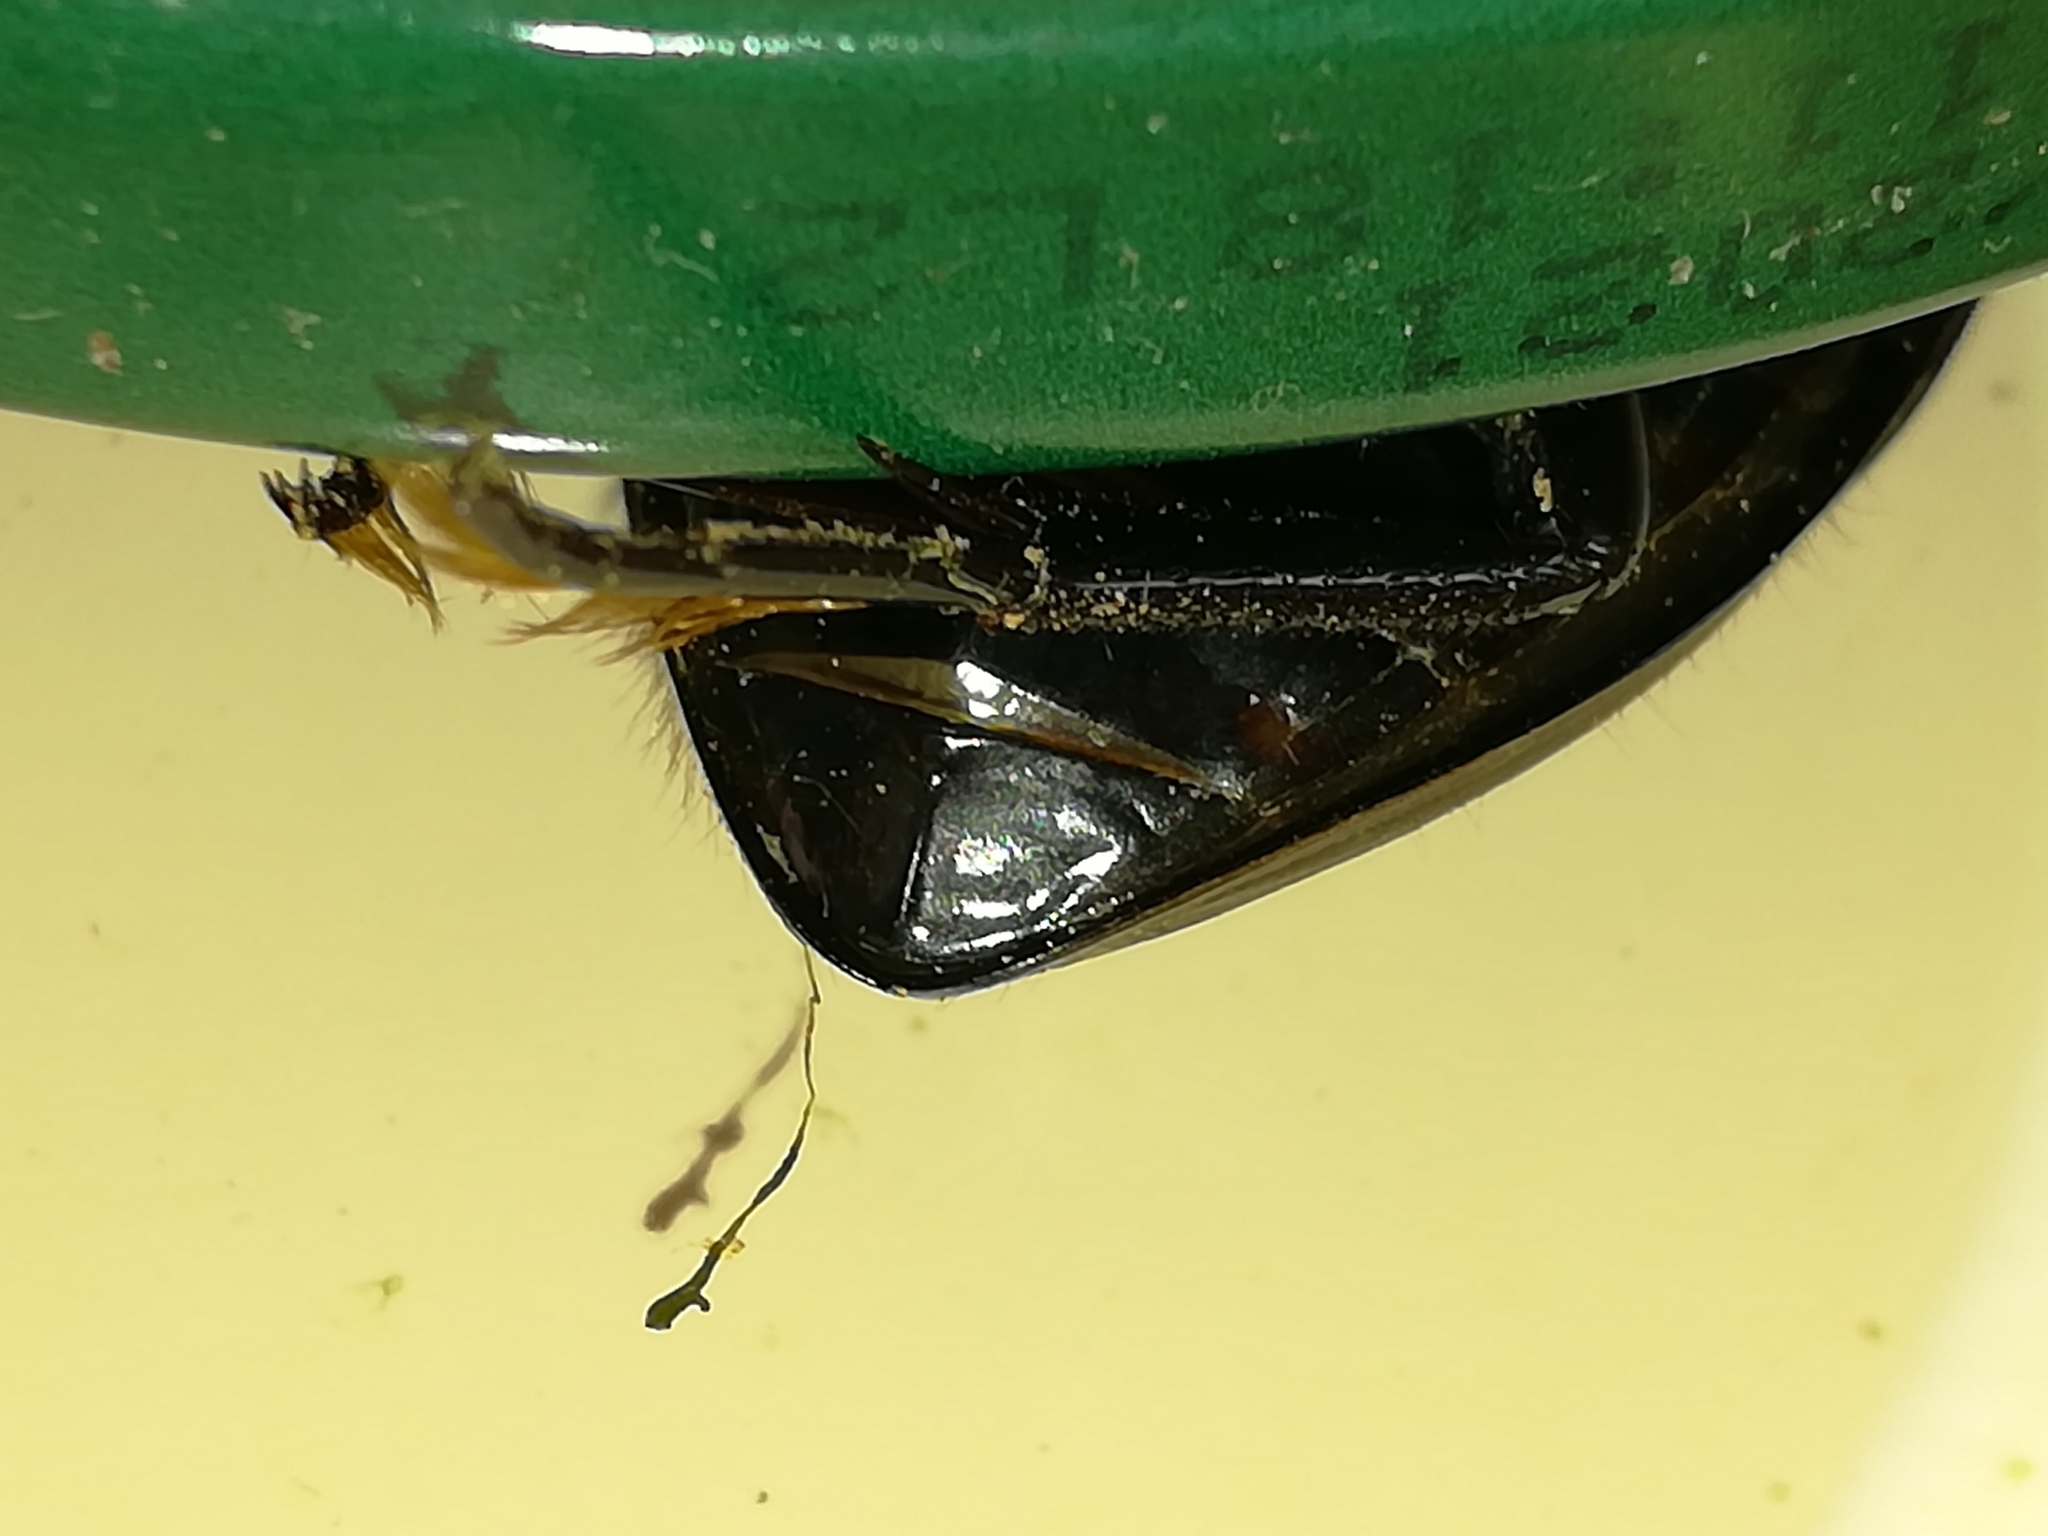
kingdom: Animalia
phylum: Arthropoda
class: Insecta
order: Coleoptera
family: Hydrophilidae
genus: Hydrophilus
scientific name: Hydrophilus pistaceus
